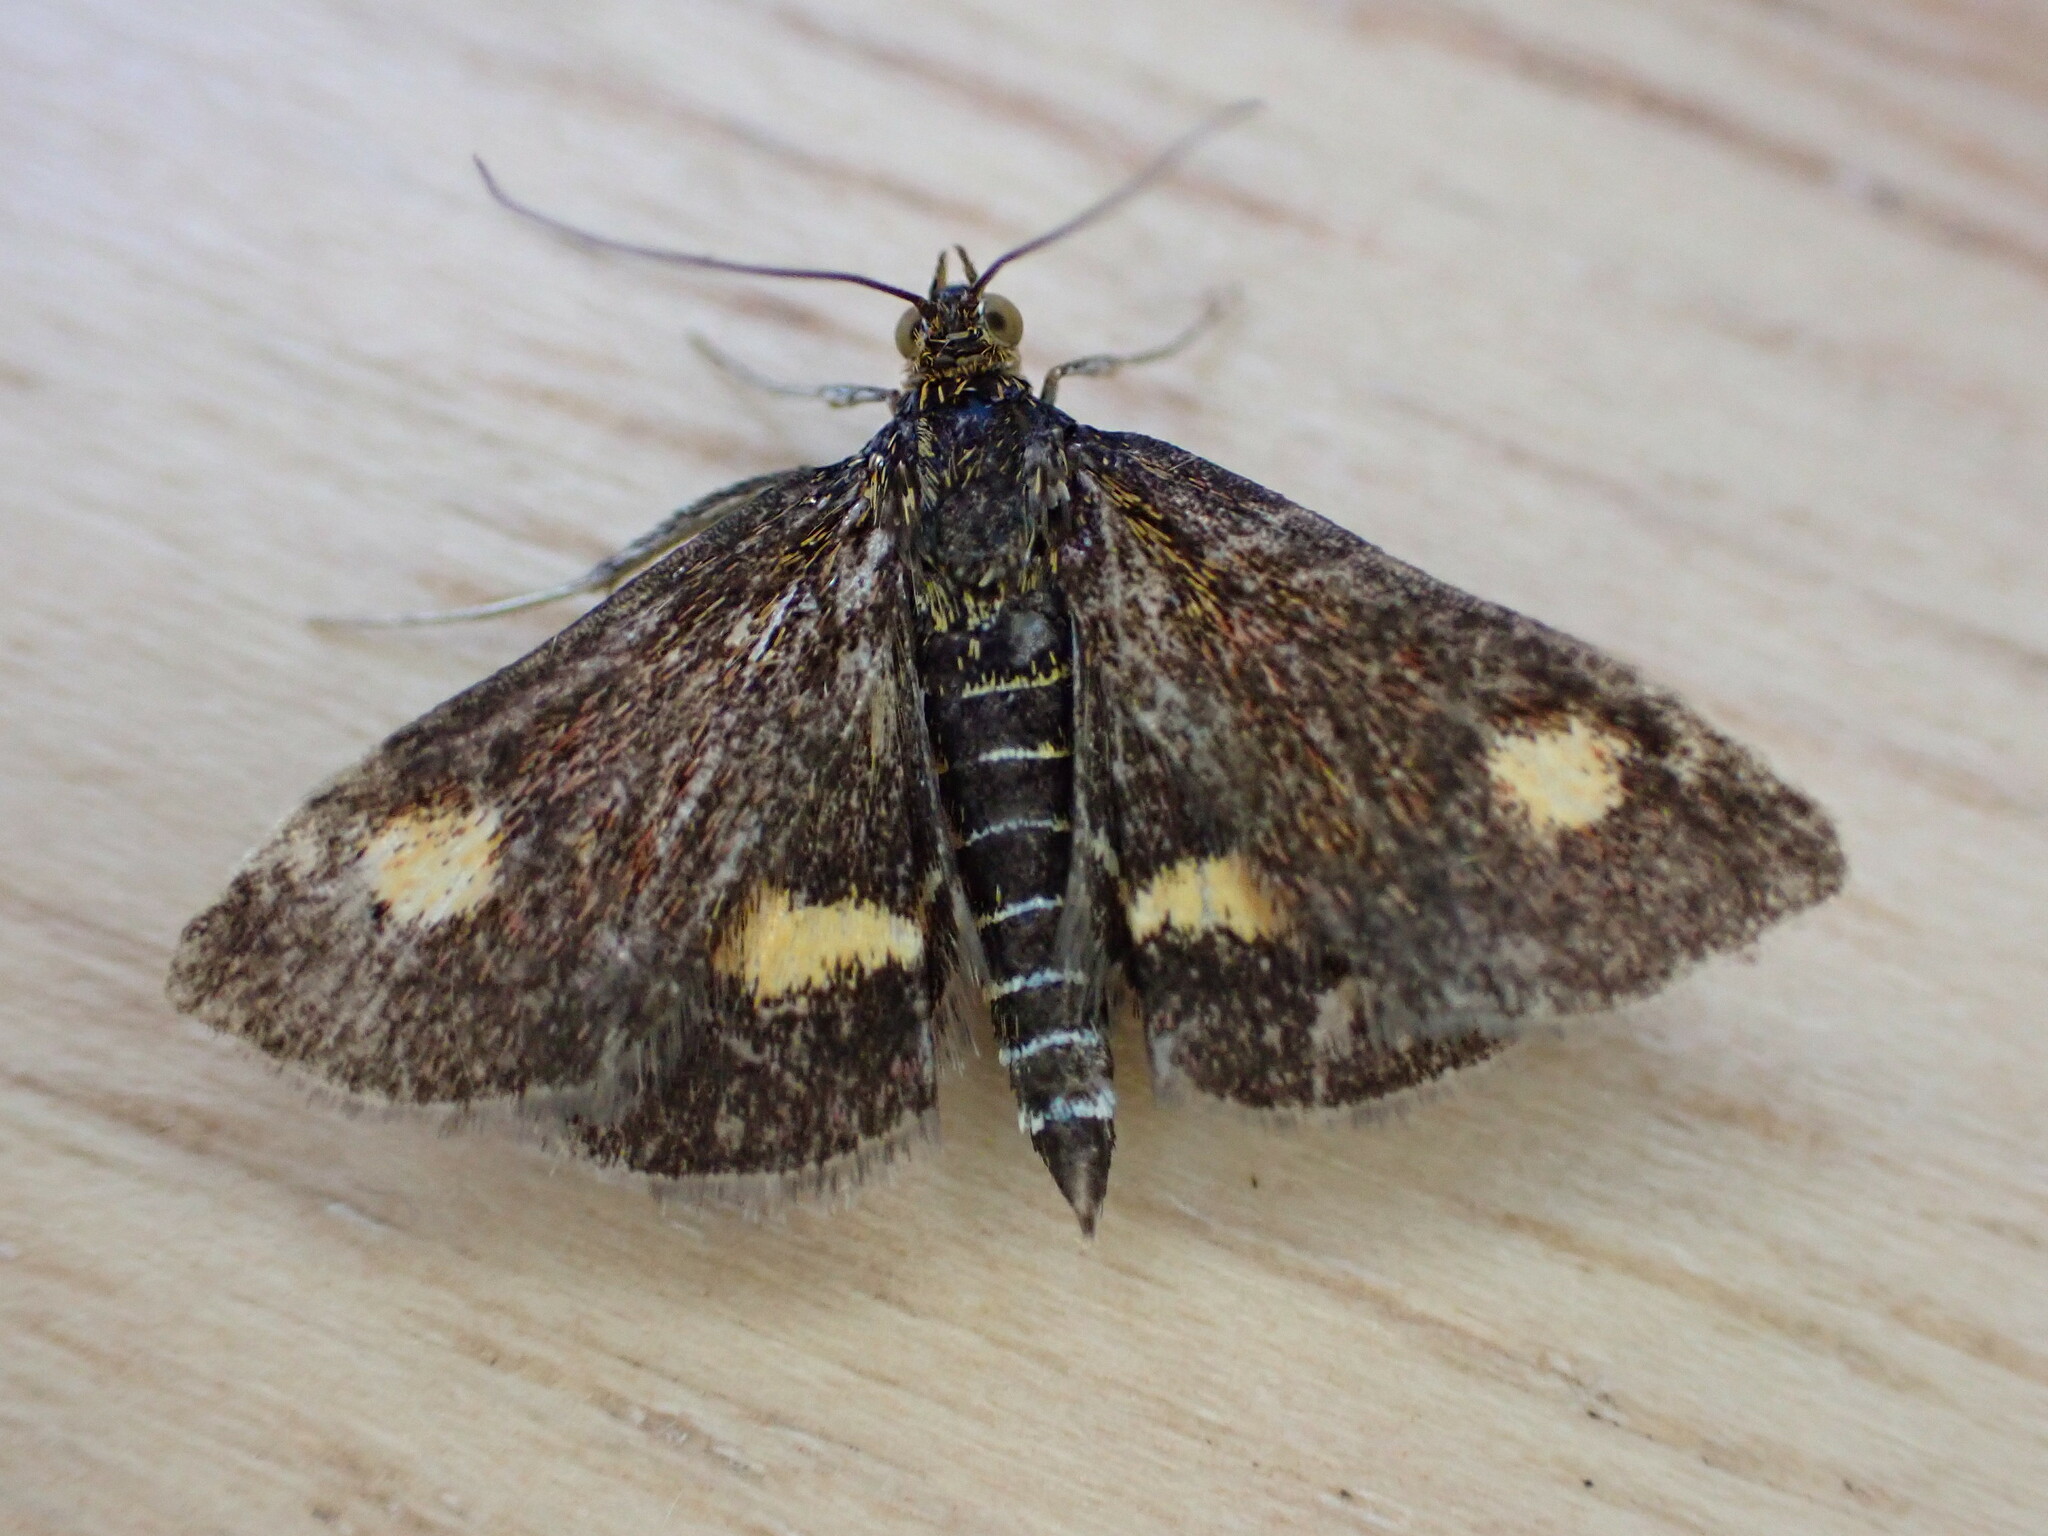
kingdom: Animalia
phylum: Arthropoda
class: Insecta
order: Lepidoptera
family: Crambidae
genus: Pyrausta
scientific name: Pyrausta aurata
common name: Small purple & gold
